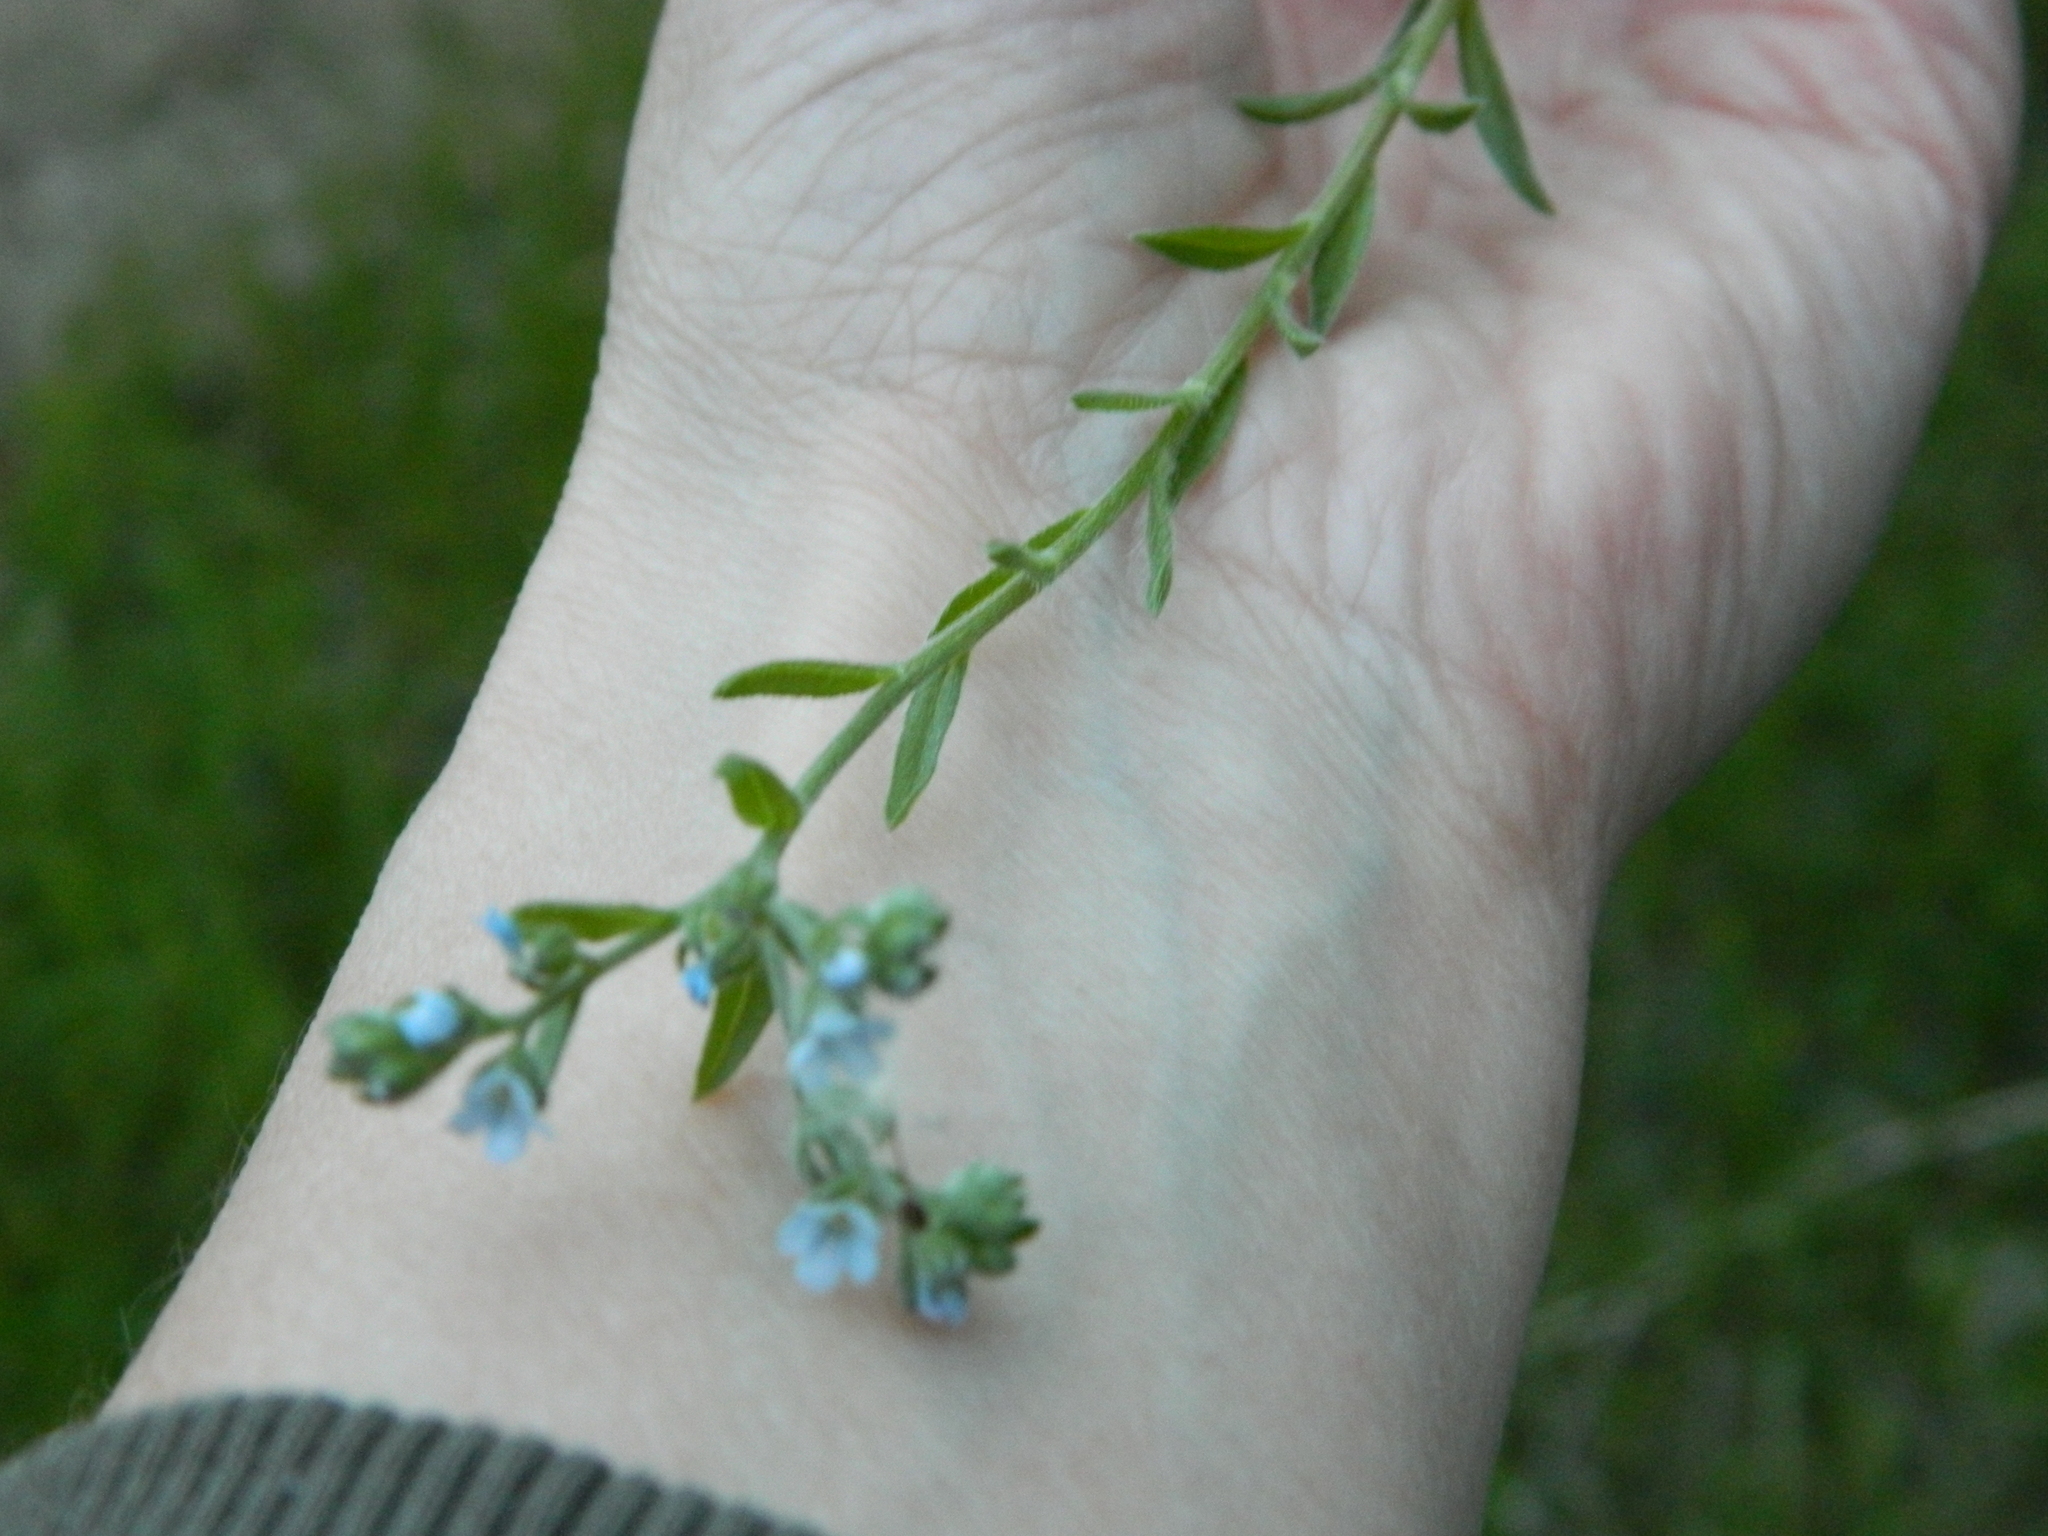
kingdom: Plantae
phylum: Tracheophyta
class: Magnoliopsida
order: Boraginales
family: Boraginaceae
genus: Lappula
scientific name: Lappula squarrosa
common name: European stickseed
